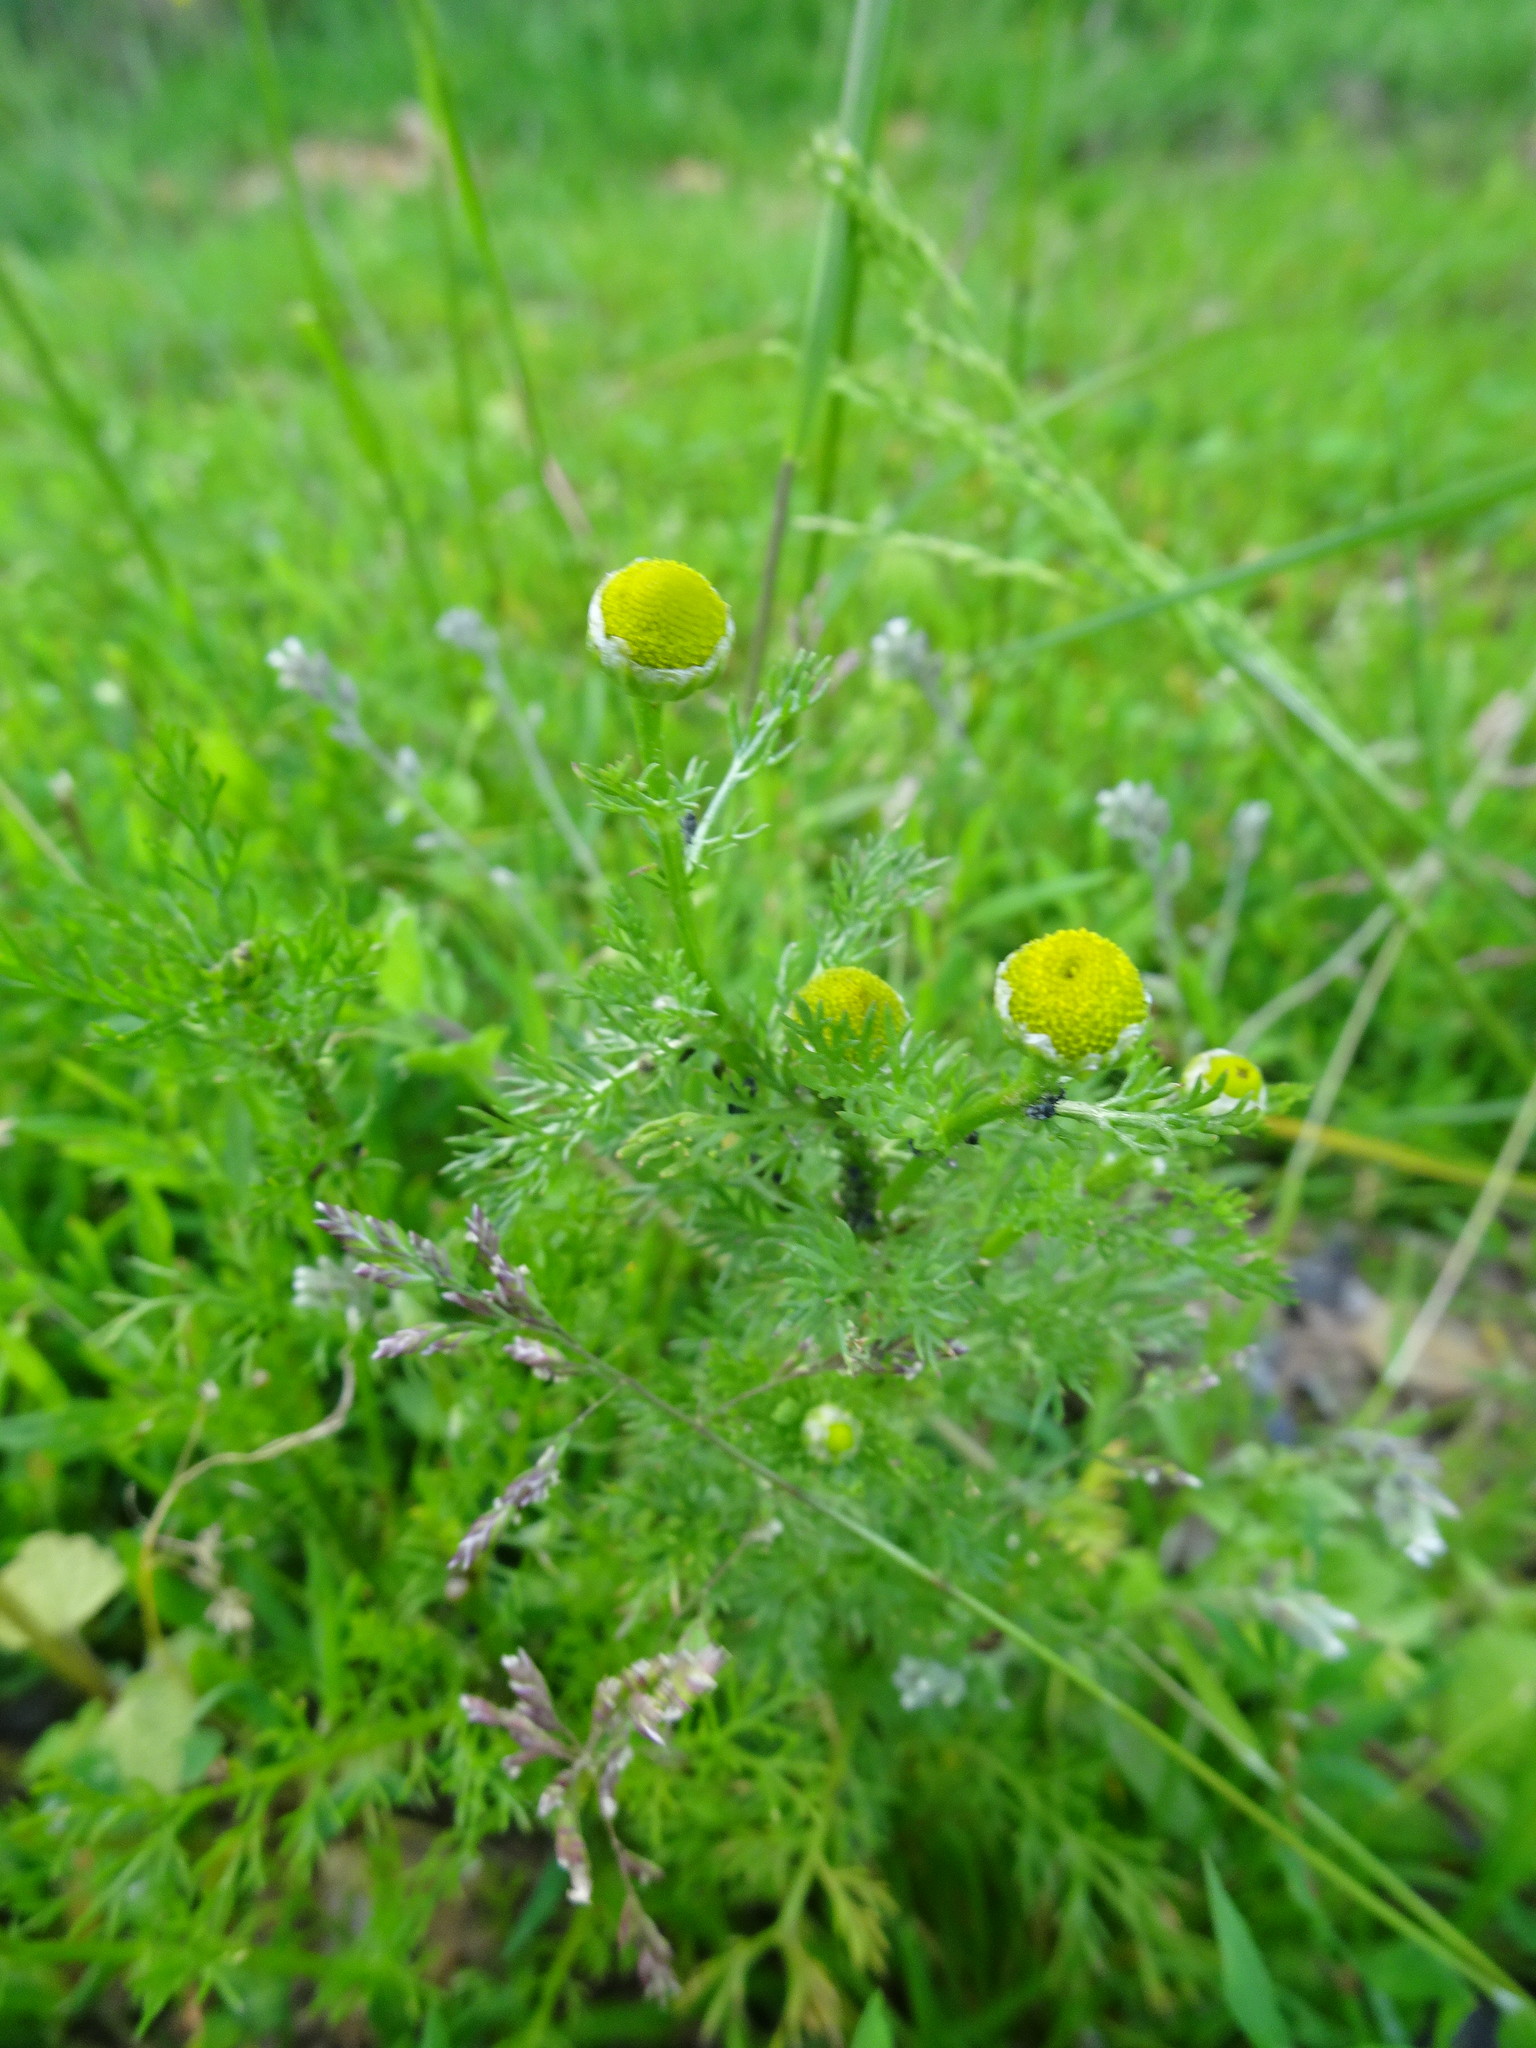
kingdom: Plantae
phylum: Tracheophyta
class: Magnoliopsida
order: Asterales
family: Asteraceae
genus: Matricaria
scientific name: Matricaria discoidea
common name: Disc mayweed
